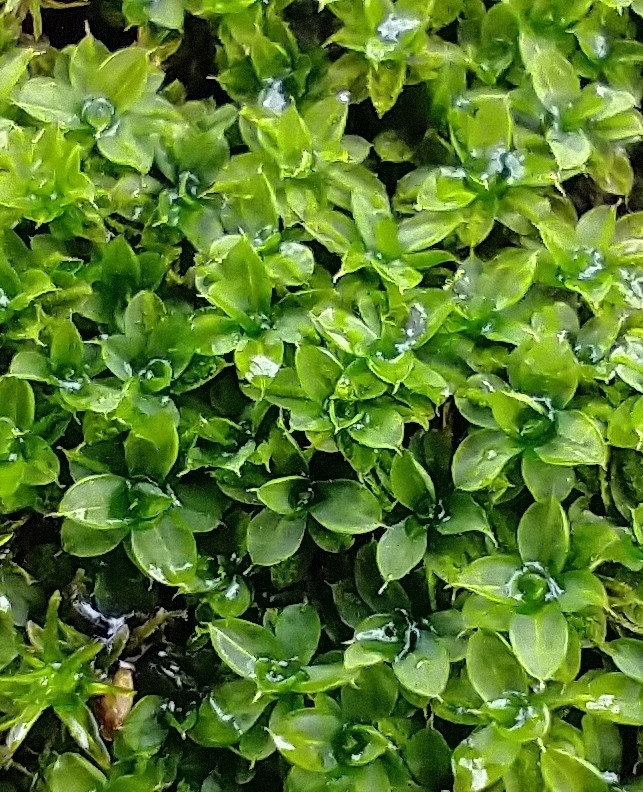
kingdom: Plantae
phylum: Bryophyta
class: Bryopsida
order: Pottiales
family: Pottiaceae
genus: Syntrichia
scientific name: Syntrichia papillosa
